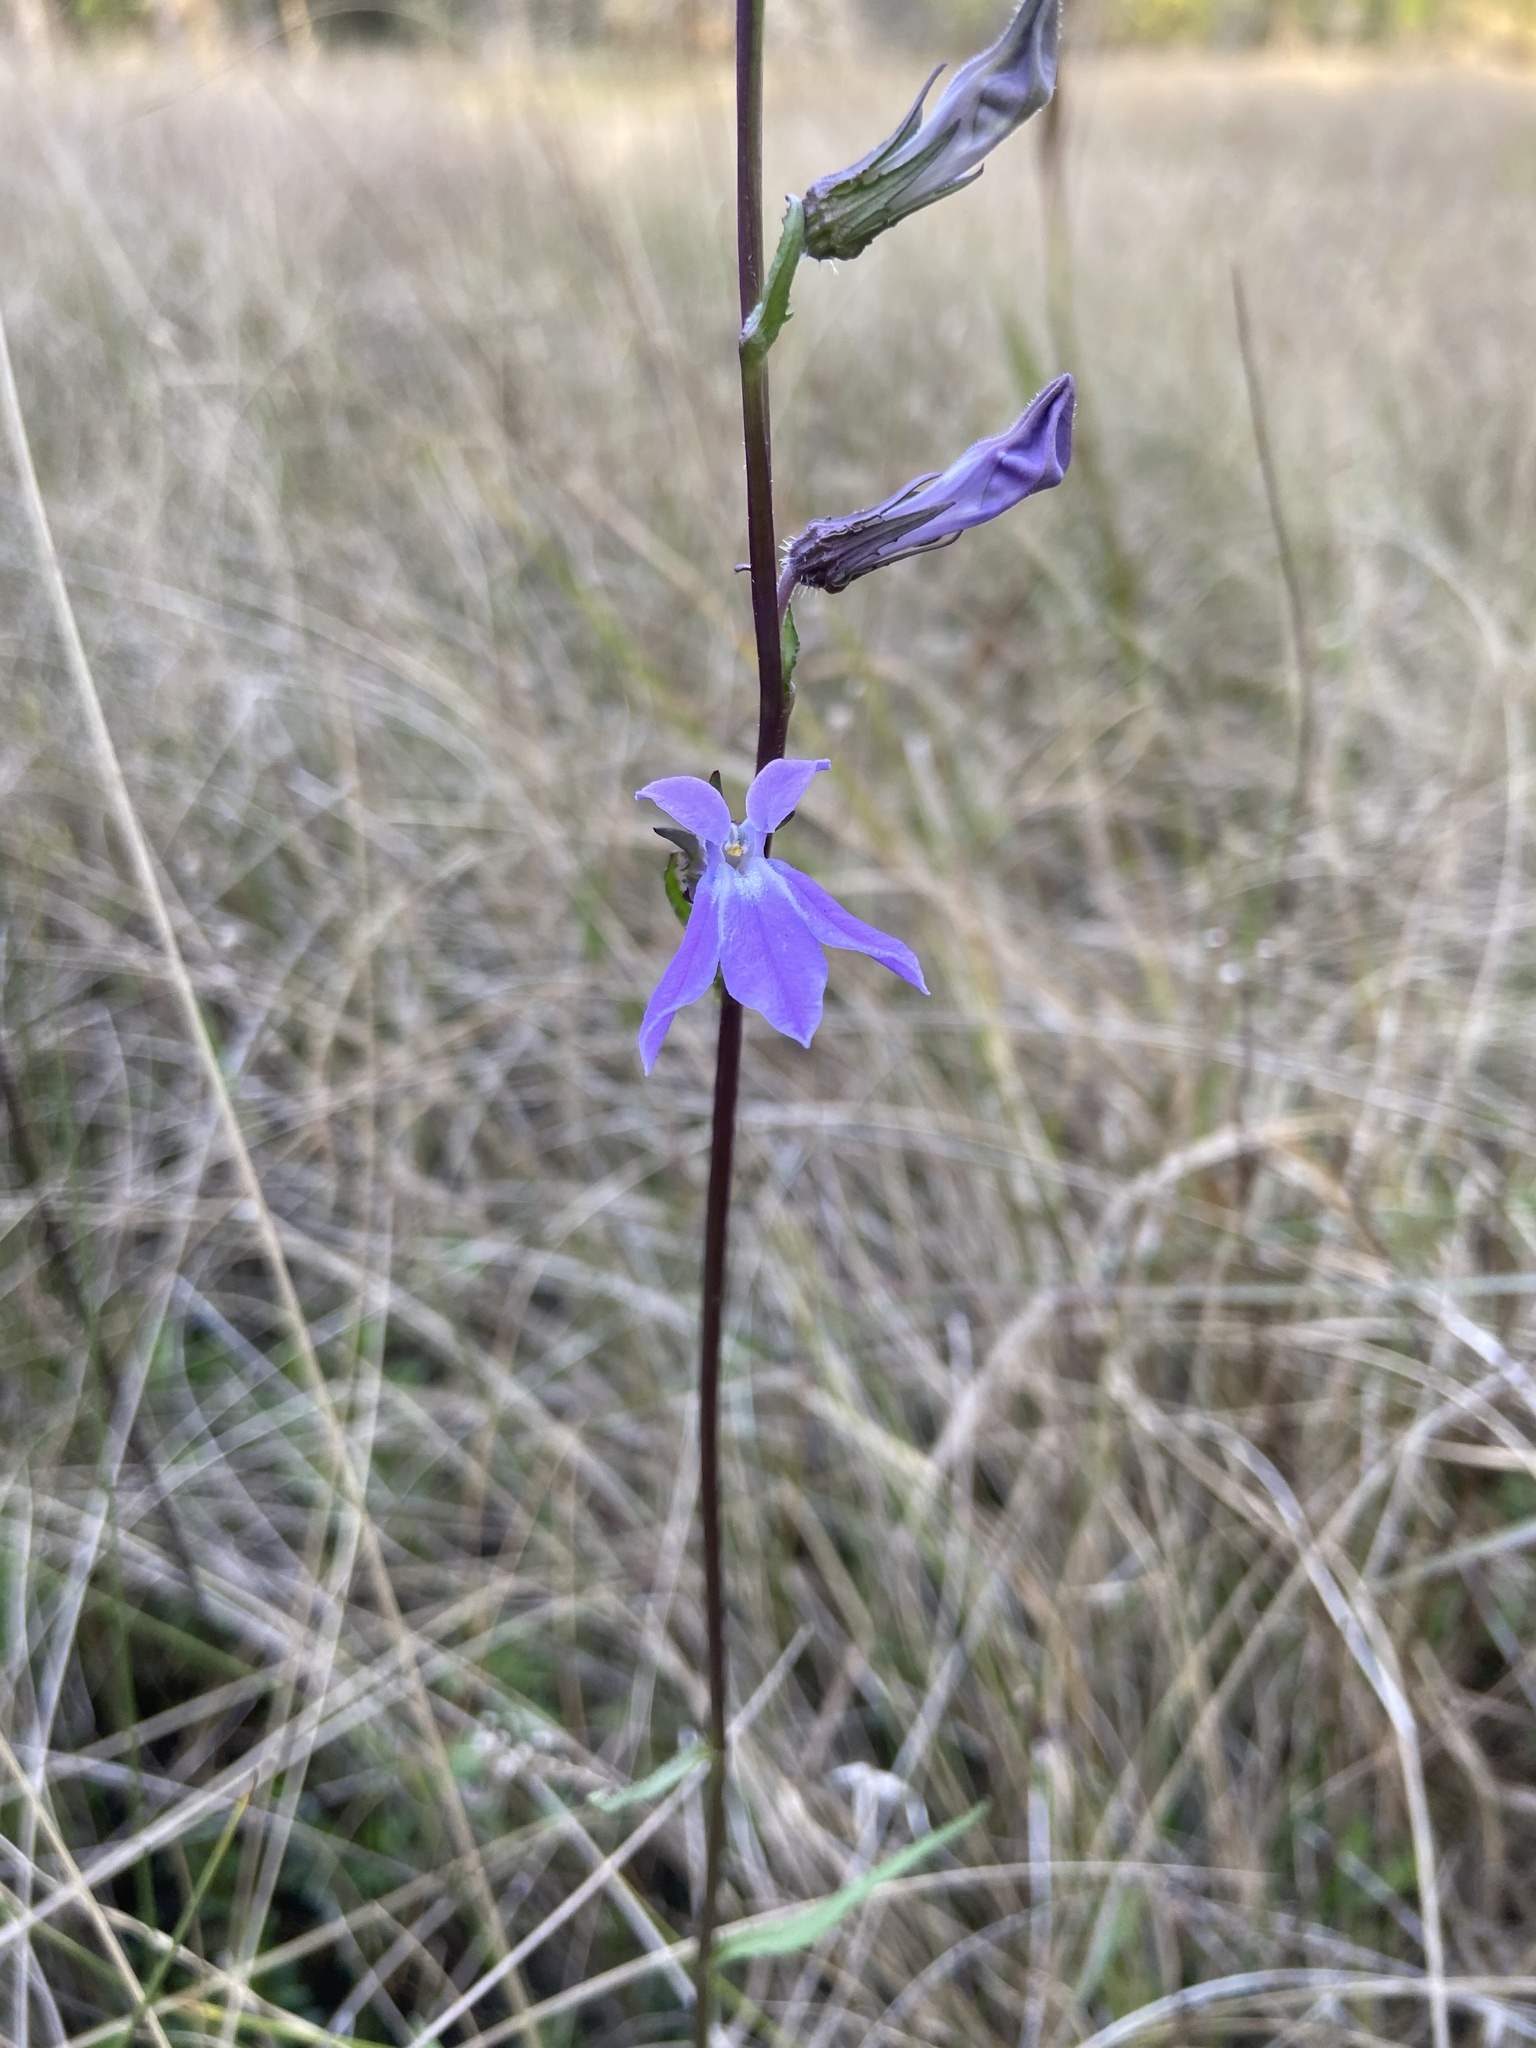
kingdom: Plantae
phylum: Tracheophyta
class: Magnoliopsida
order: Asterales
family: Campanulaceae
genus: Lobelia
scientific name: Lobelia glandulosa
